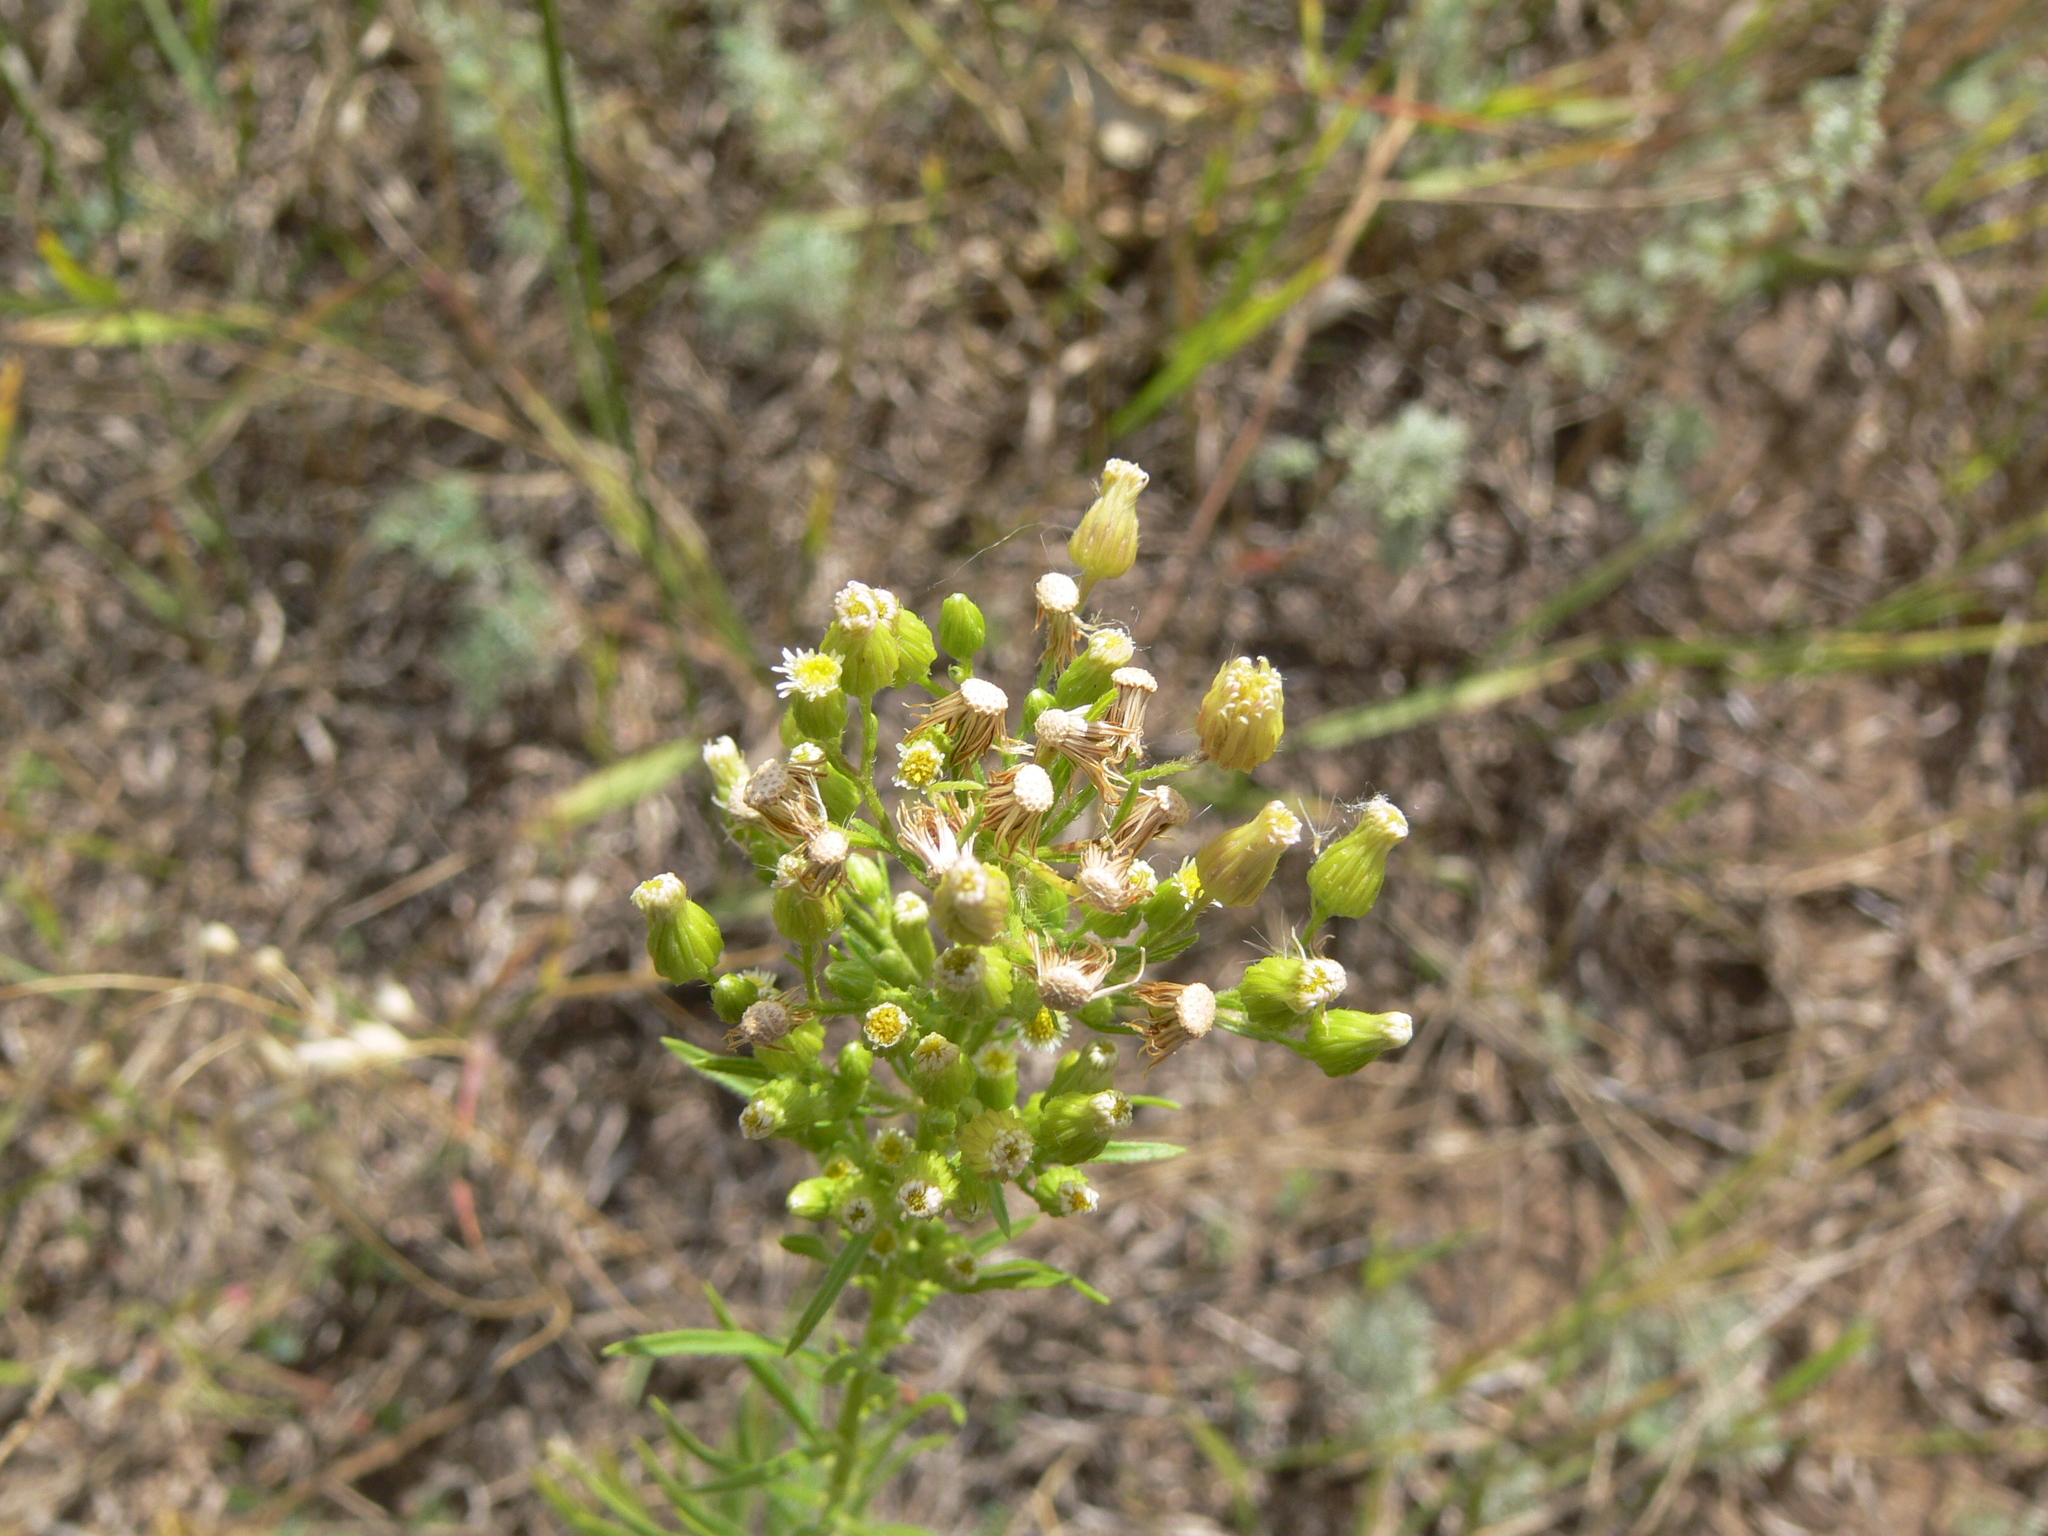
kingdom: Plantae
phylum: Tracheophyta
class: Magnoliopsida
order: Asterales
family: Asteraceae
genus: Erigeron
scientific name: Erigeron canadensis
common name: Canadian fleabane
